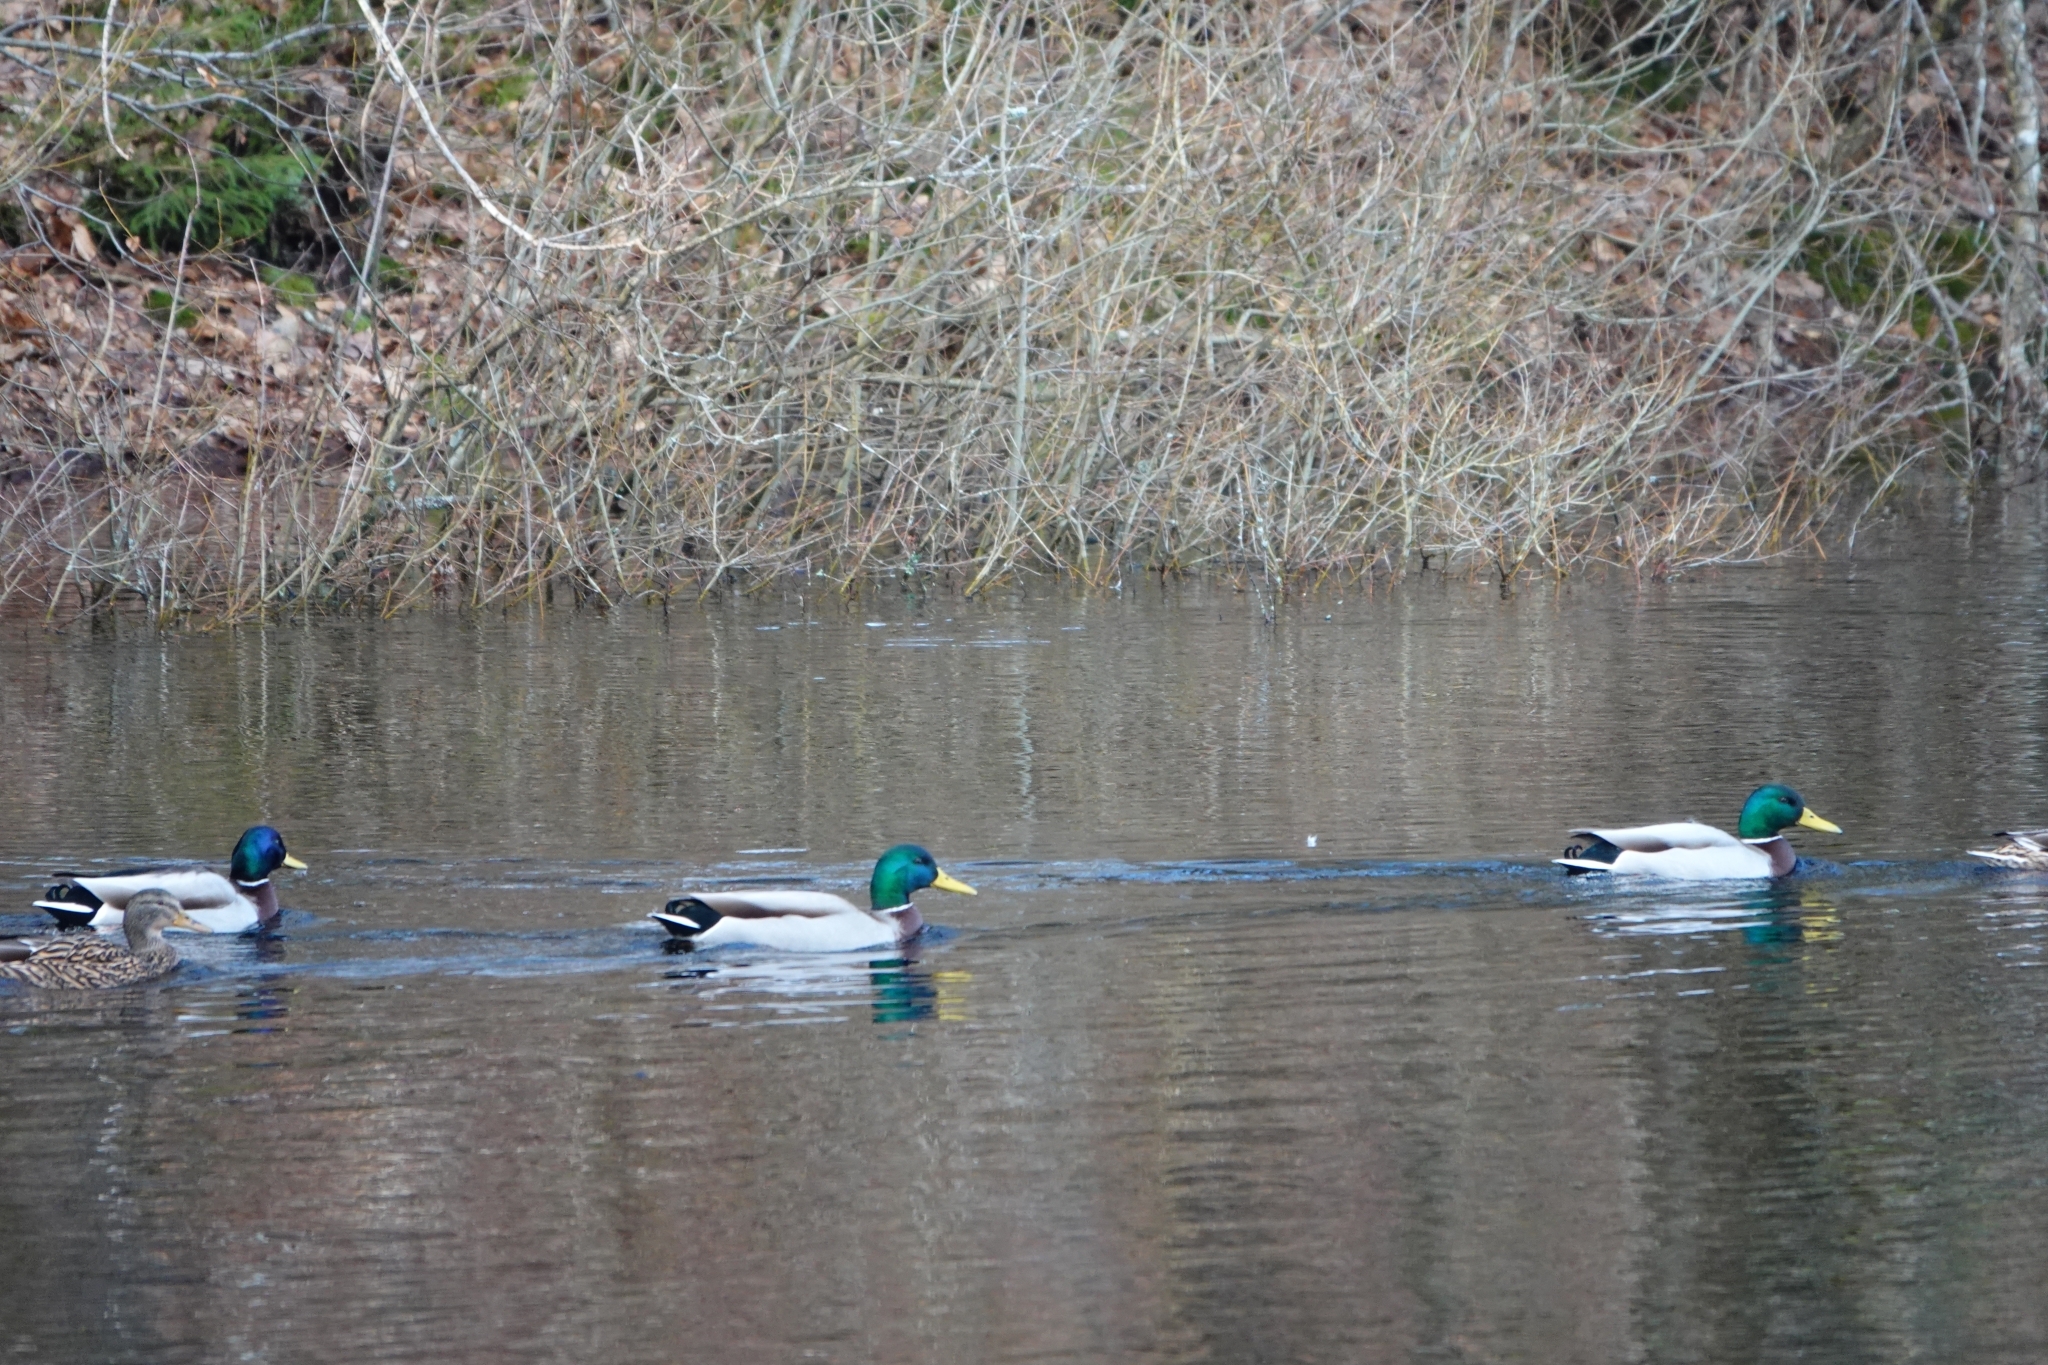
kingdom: Animalia
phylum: Chordata
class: Aves
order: Anseriformes
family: Anatidae
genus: Anas
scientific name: Anas platyrhynchos
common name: Mallard
